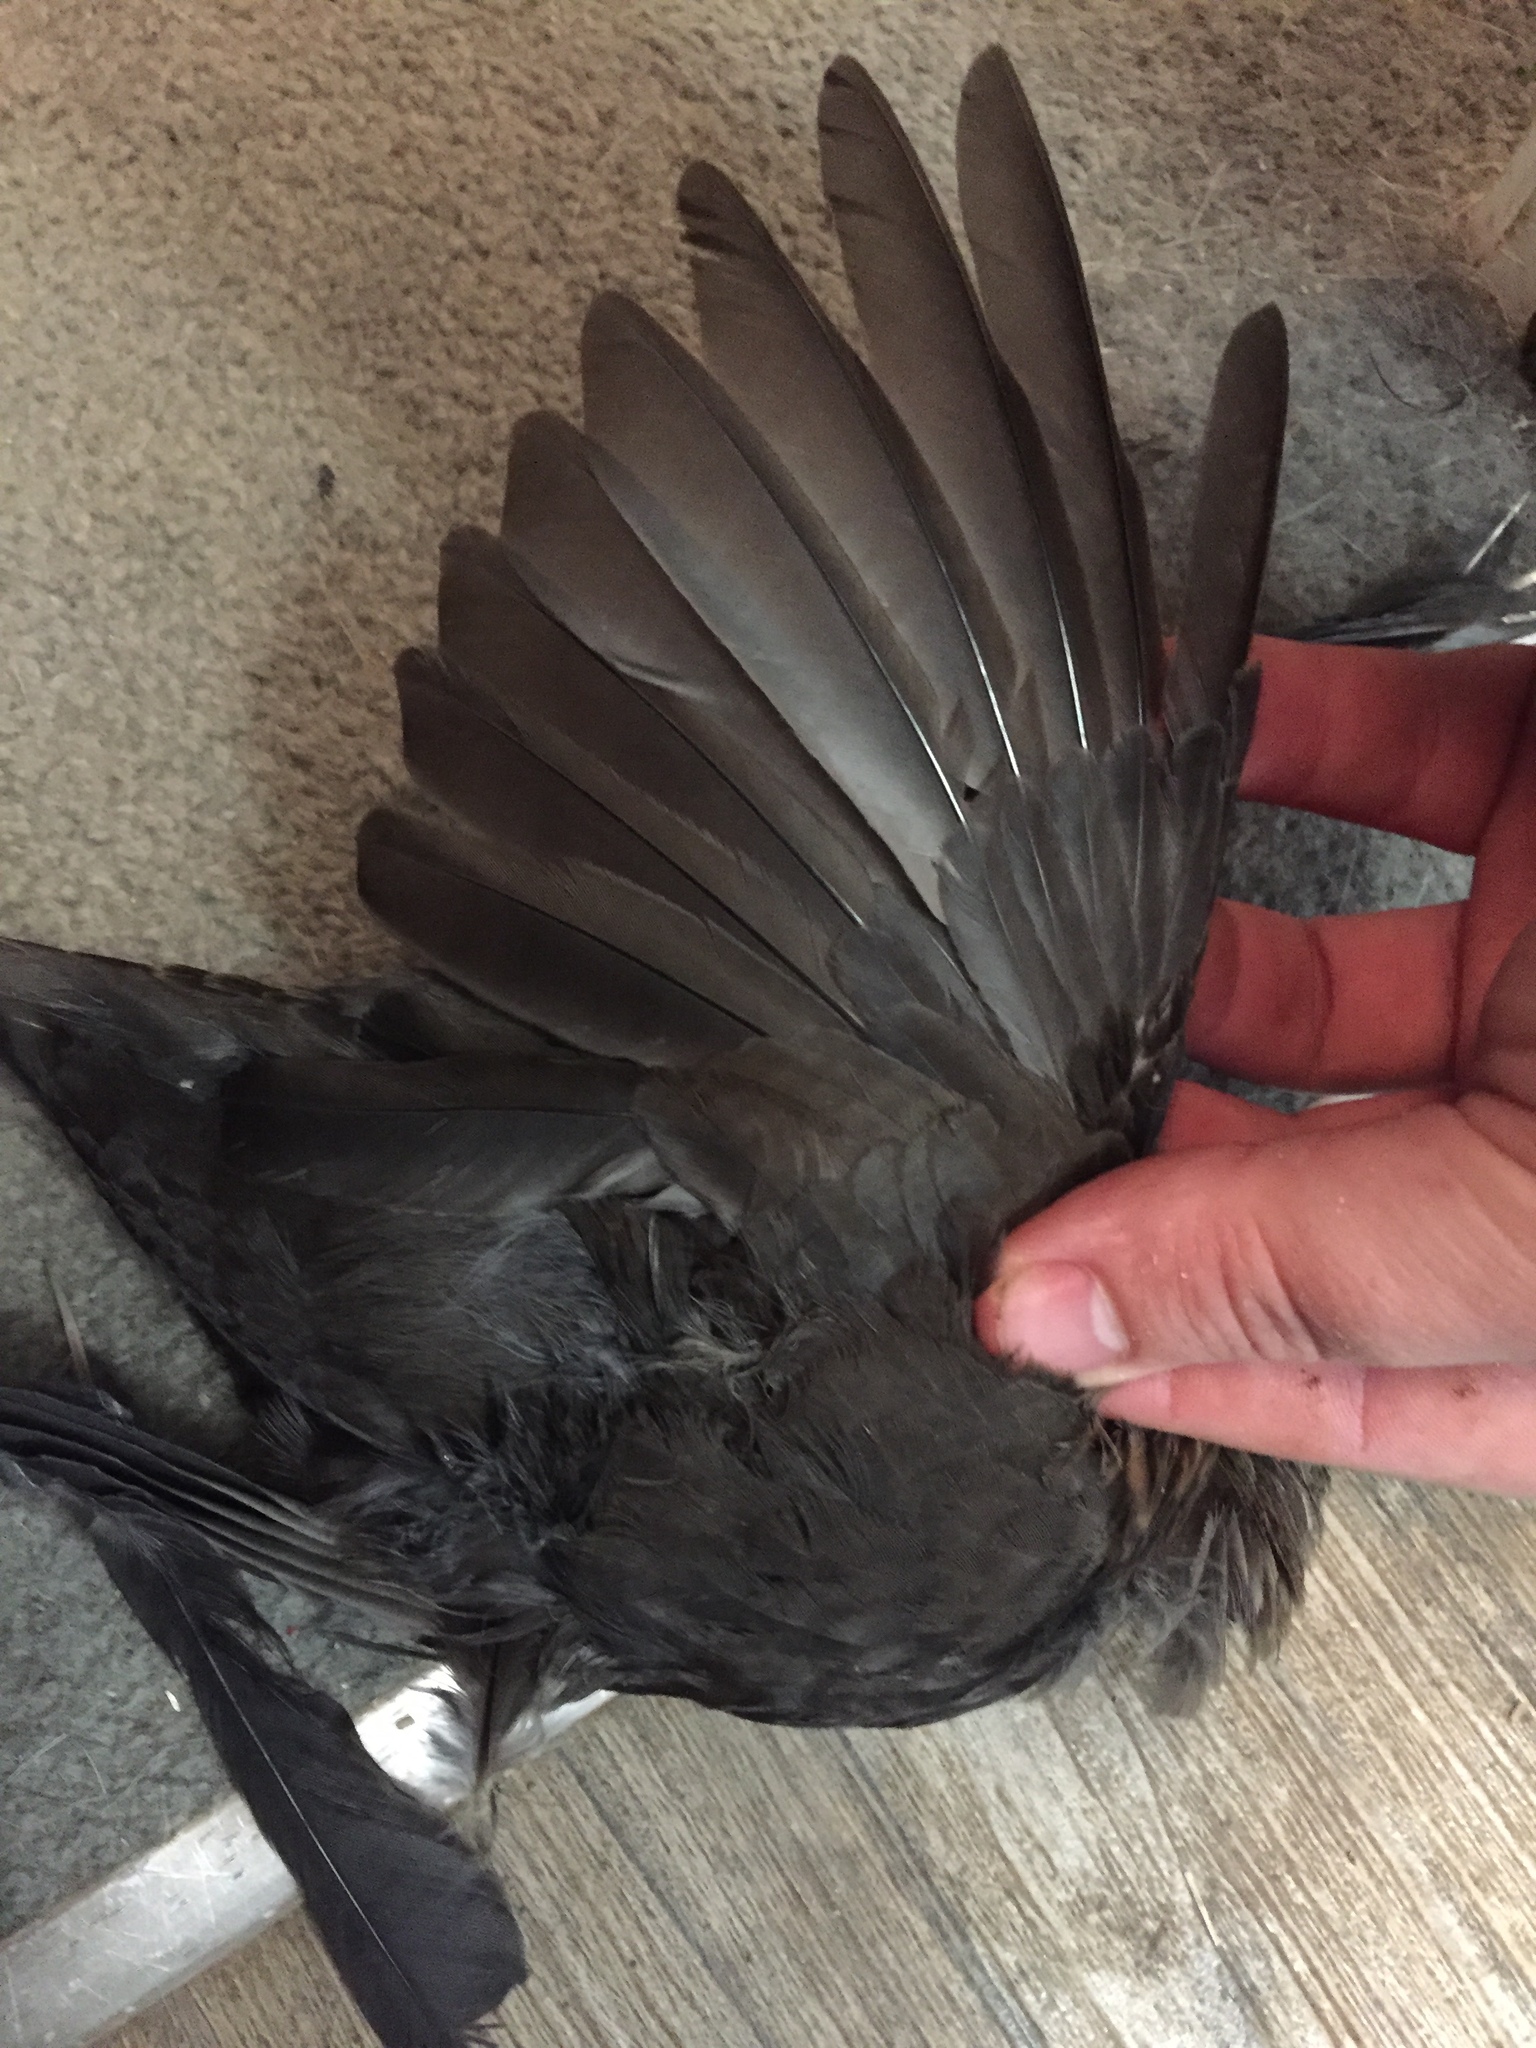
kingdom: Animalia
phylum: Chordata
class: Aves
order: Passeriformes
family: Turdidae
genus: Turdus
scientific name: Turdus merula
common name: Common blackbird
